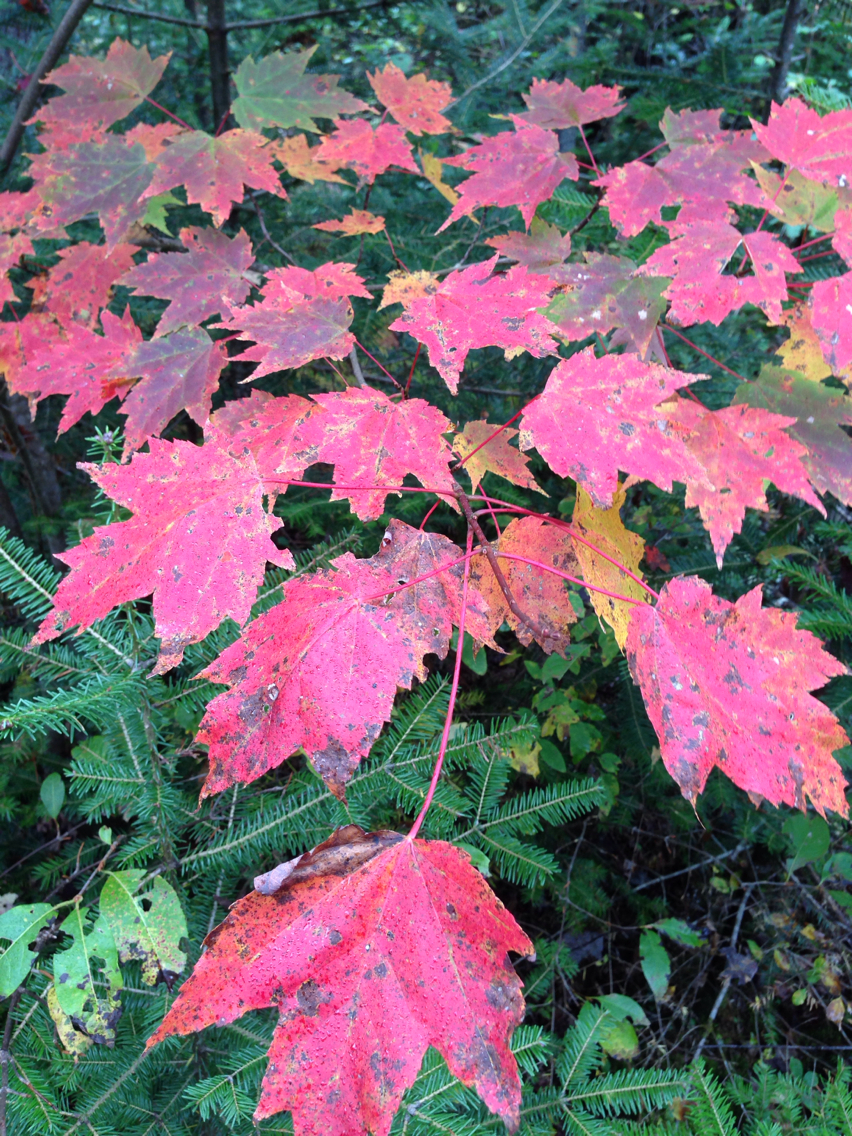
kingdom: Plantae
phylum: Tracheophyta
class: Magnoliopsida
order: Sapindales
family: Sapindaceae
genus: Acer
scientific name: Acer rubrum
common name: Red maple
